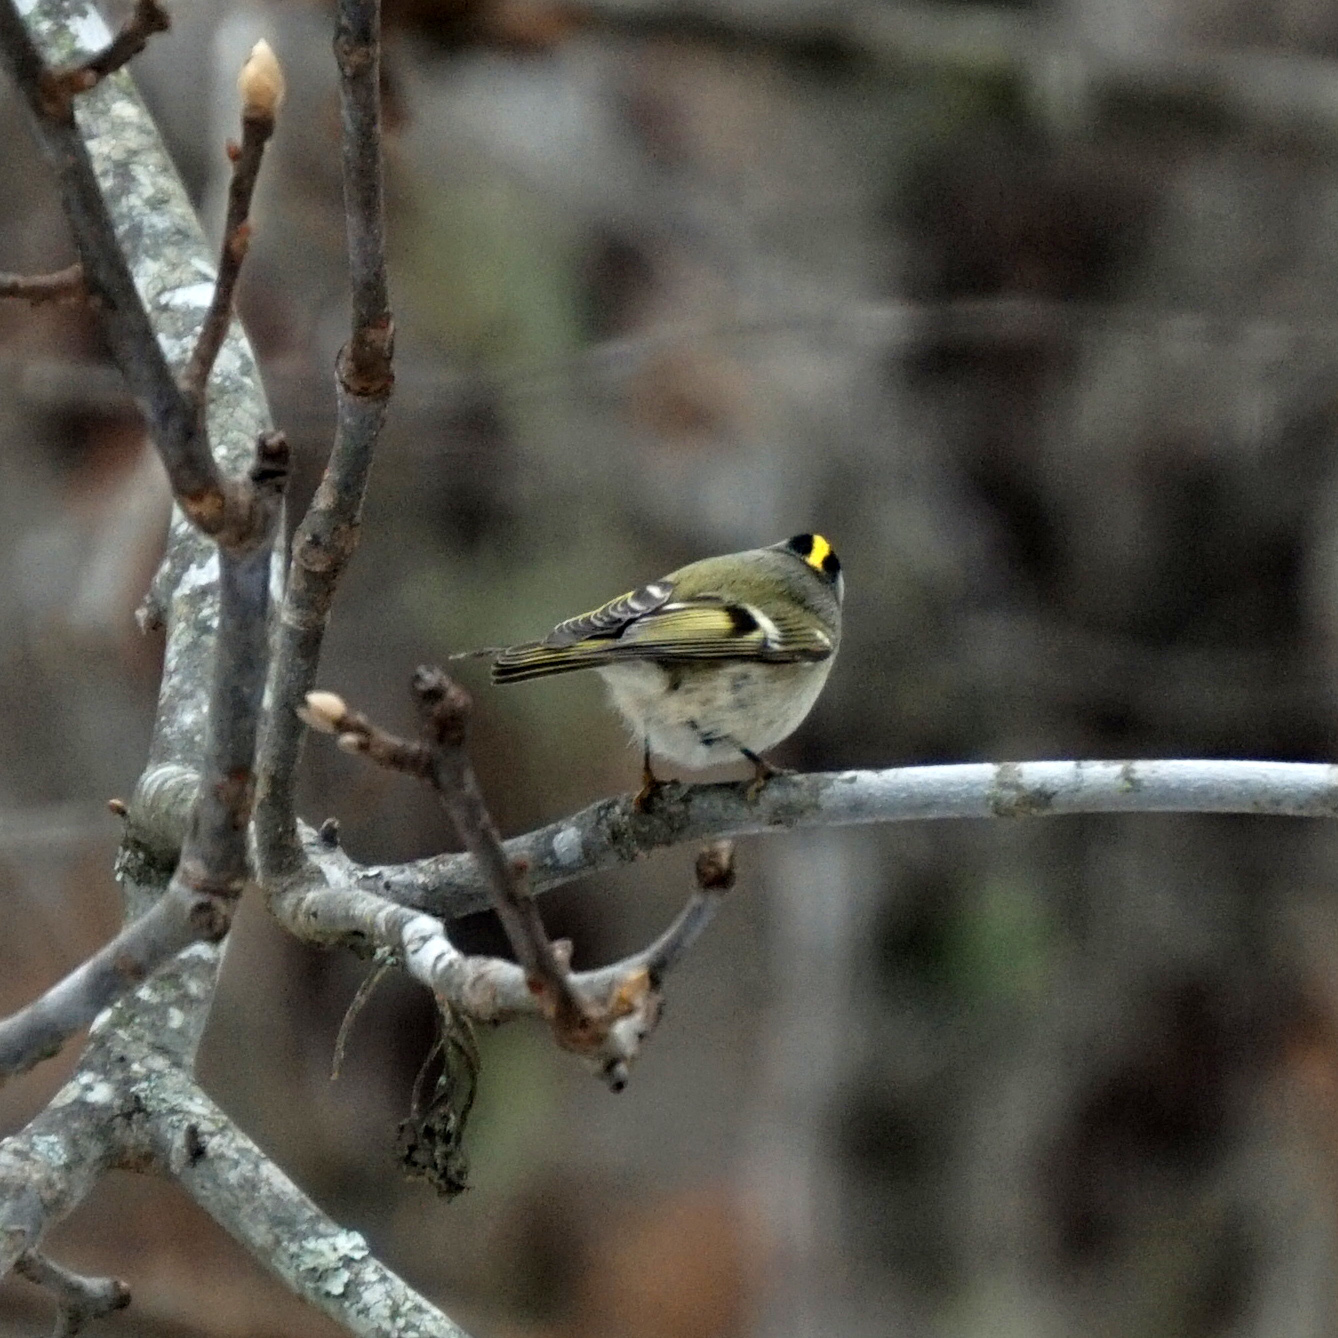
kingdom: Animalia
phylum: Chordata
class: Aves
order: Passeriformes
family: Regulidae
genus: Regulus
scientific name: Regulus satrapa
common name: Golden-crowned kinglet
